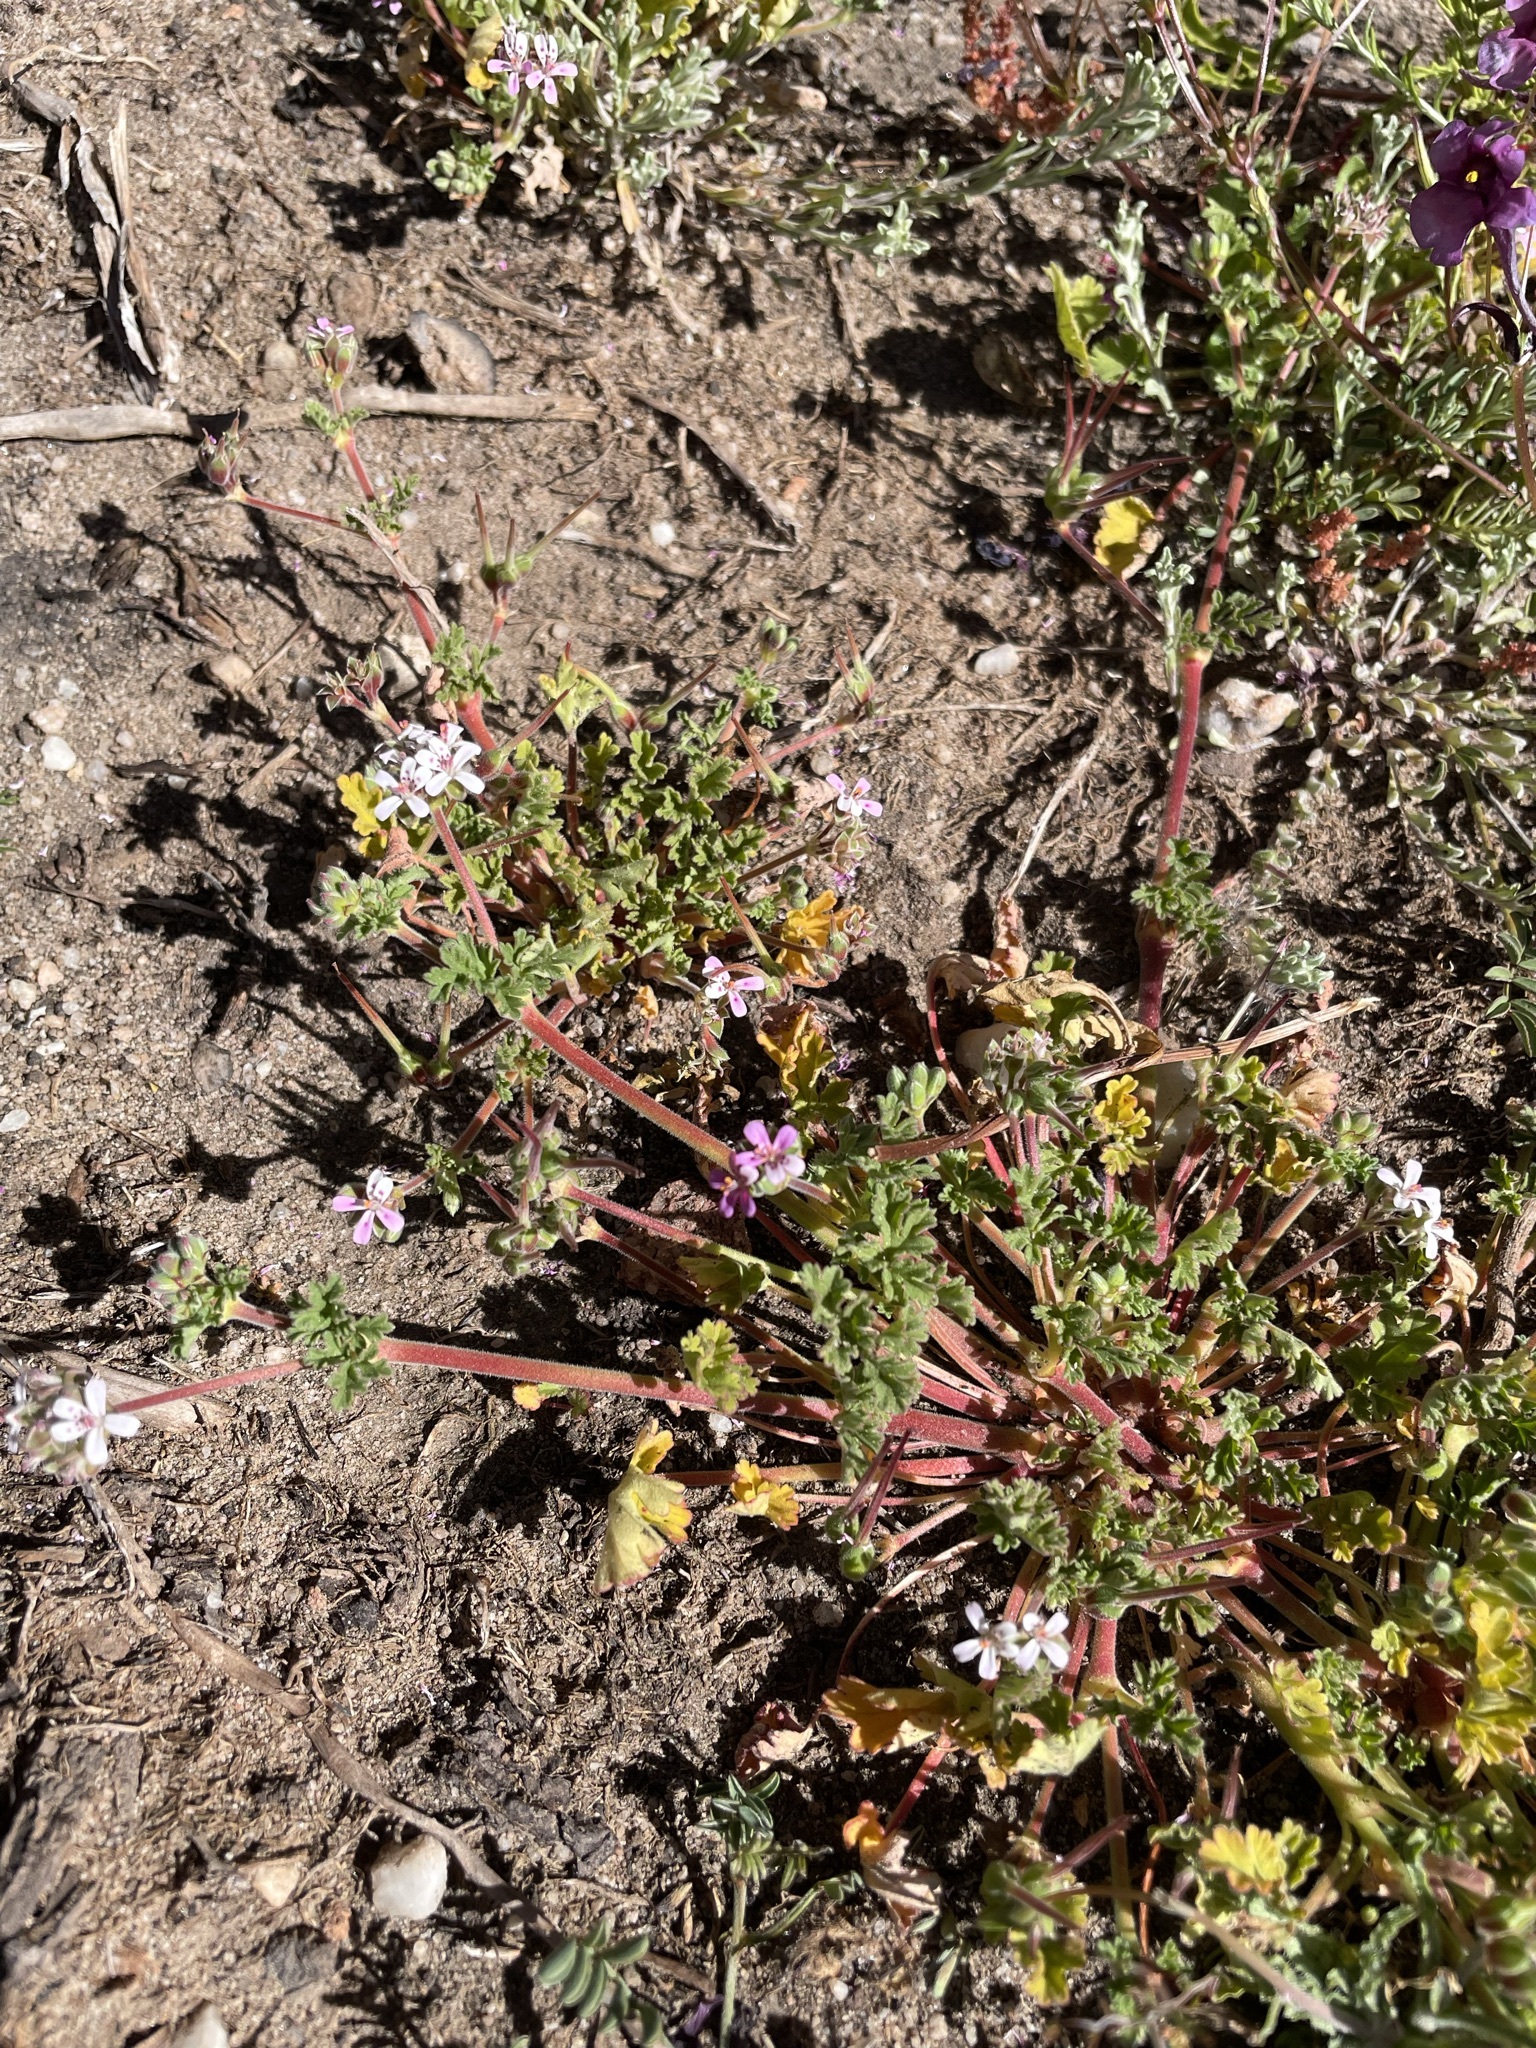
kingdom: Plantae
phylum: Tracheophyta
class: Magnoliopsida
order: Geraniales
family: Geraniaceae
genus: Pelargonium
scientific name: Pelargonium nanum
